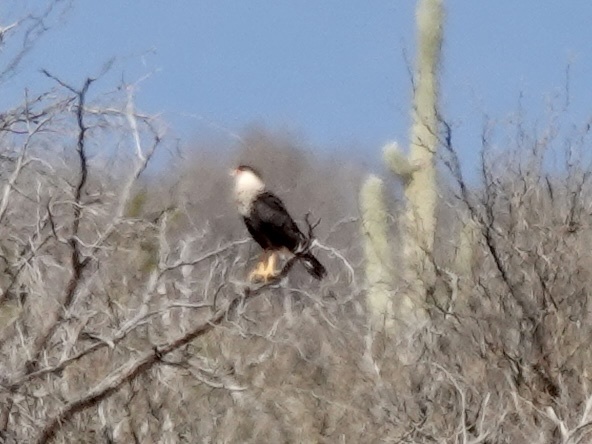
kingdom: Animalia
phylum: Chordata
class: Aves
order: Falconiformes
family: Falconidae
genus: Caracara
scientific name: Caracara plancus
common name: Southern caracara
